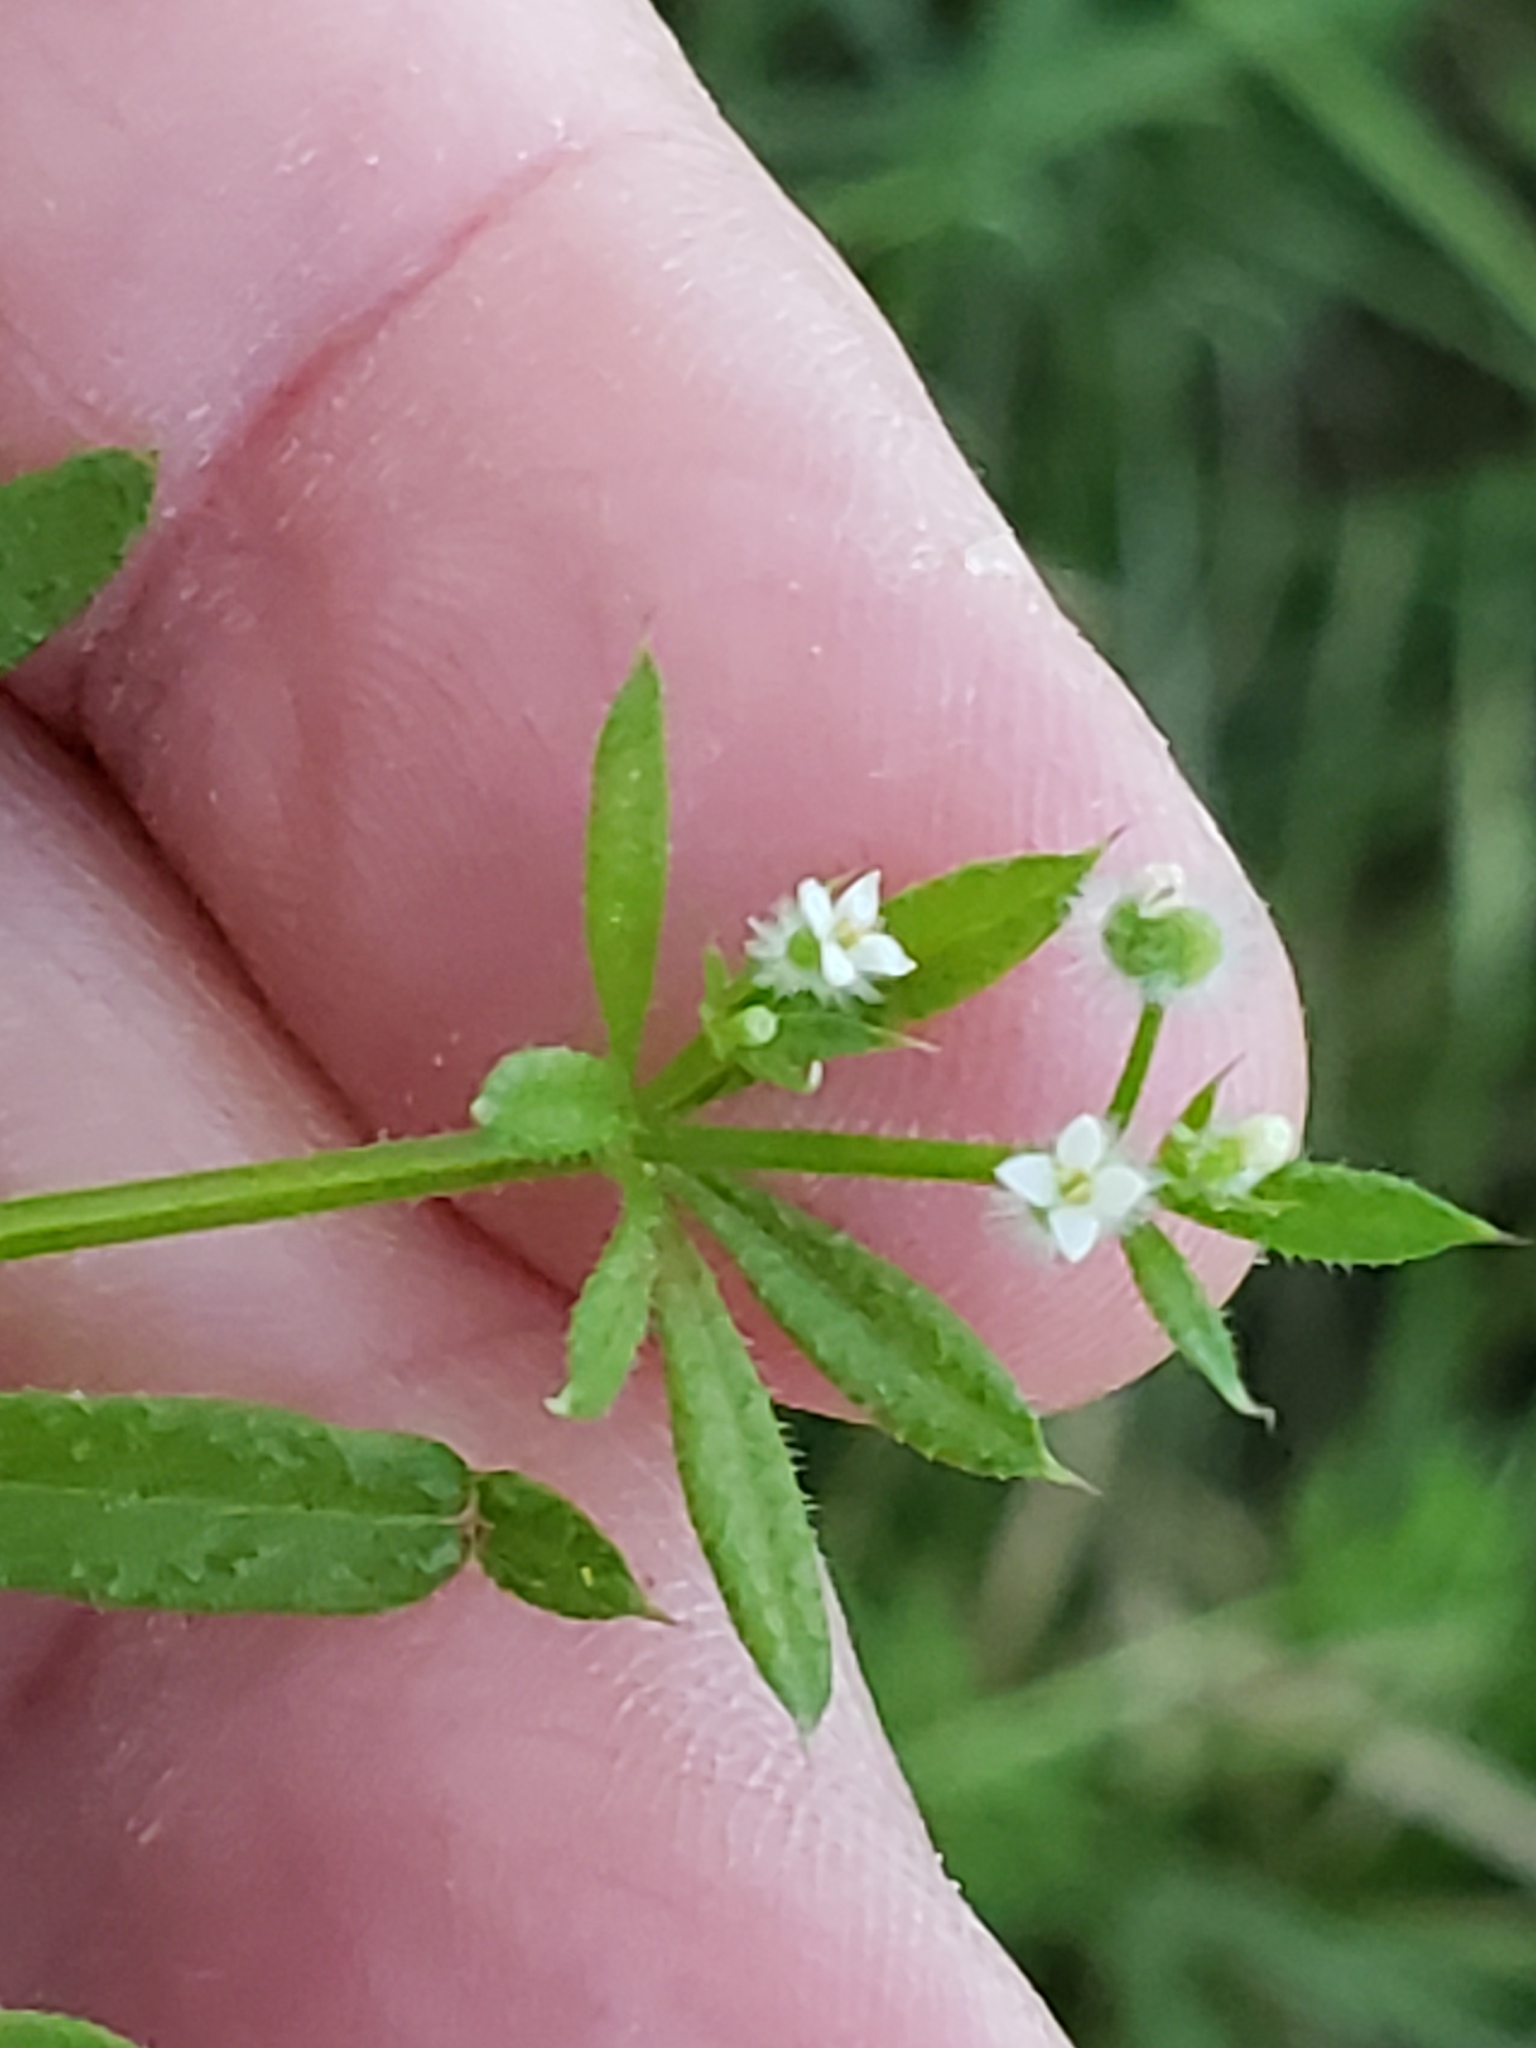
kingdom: Plantae
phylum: Tracheophyta
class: Magnoliopsida
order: Gentianales
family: Rubiaceae
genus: Galium
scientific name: Galium aparine
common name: Cleavers
